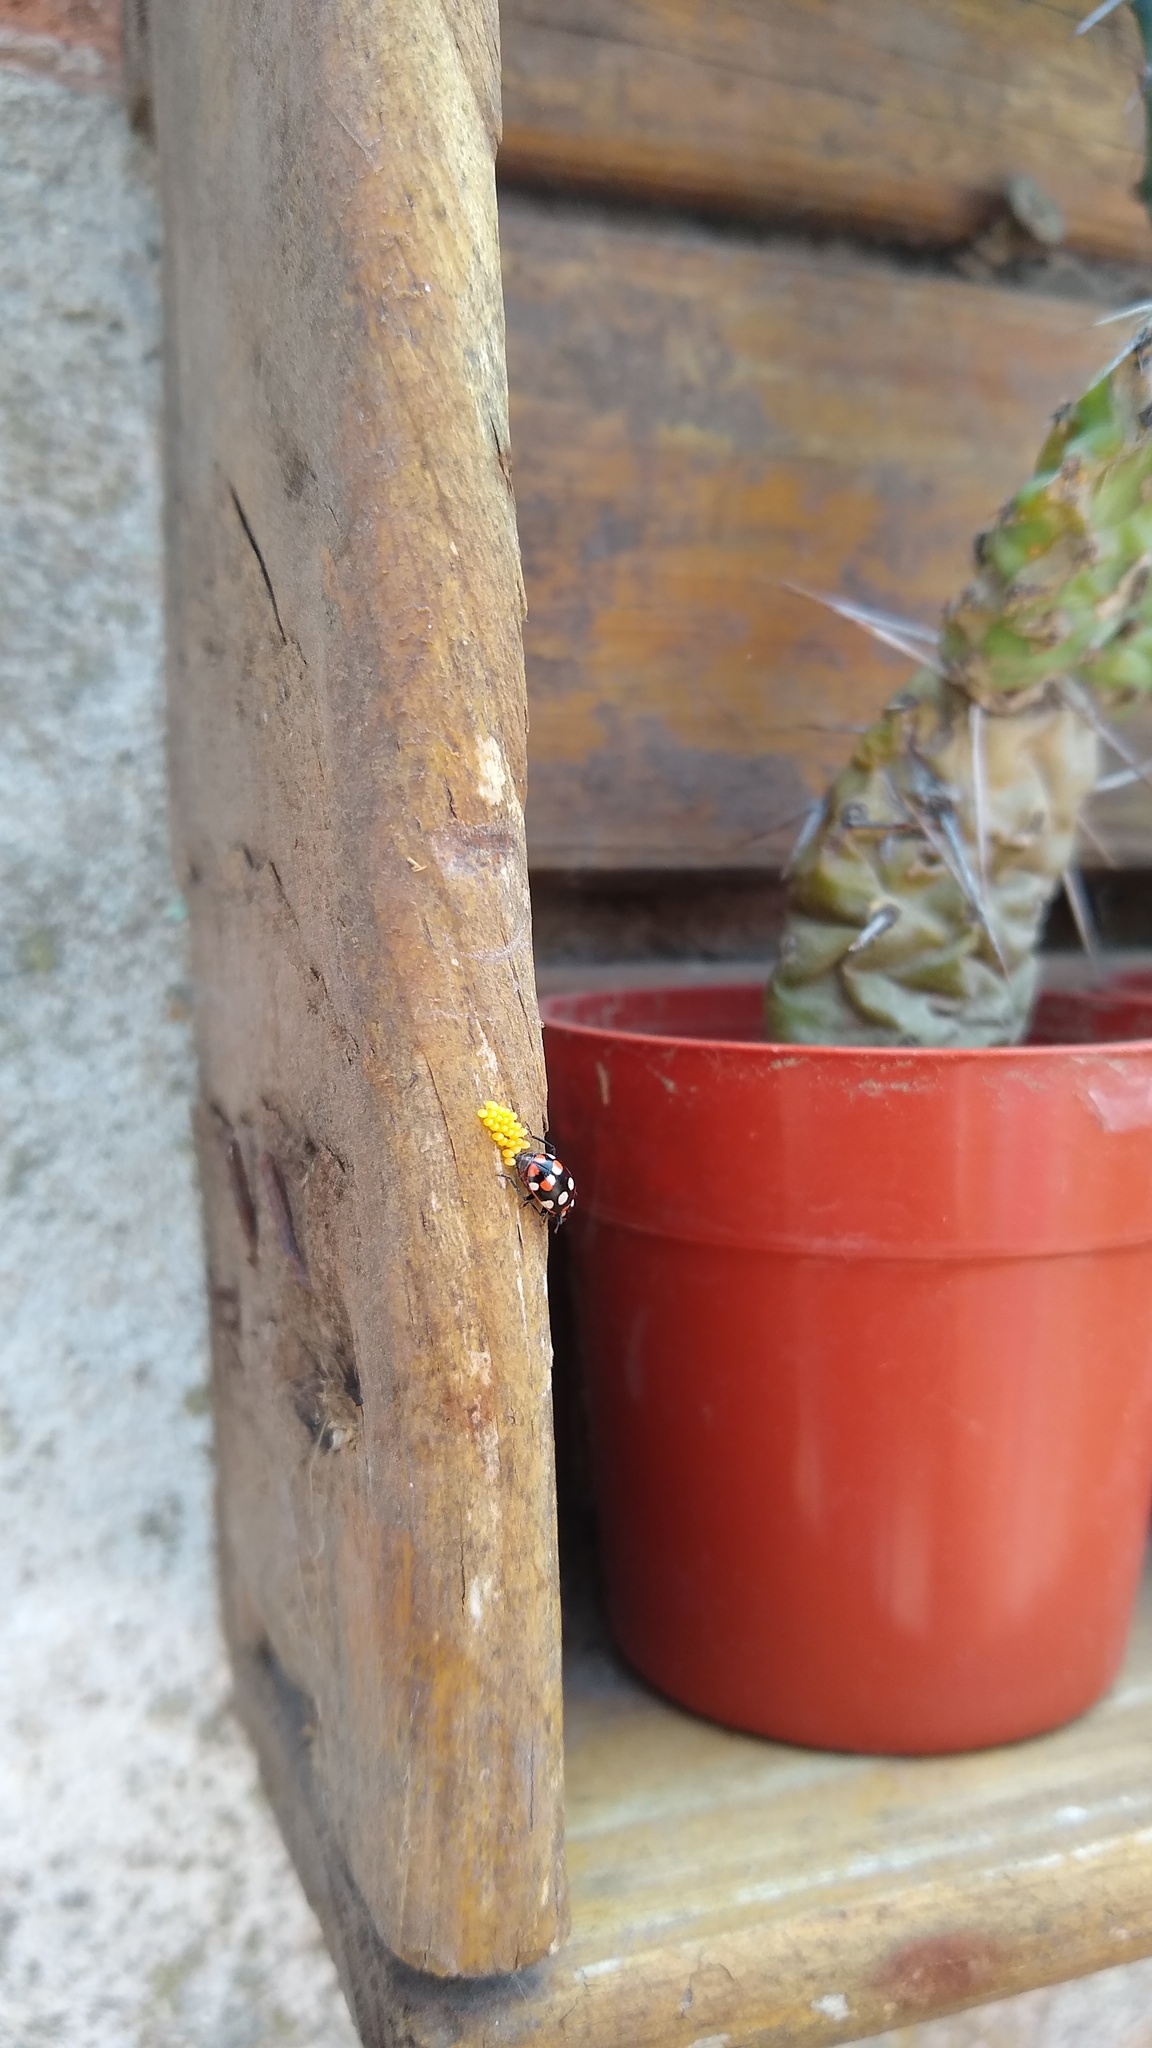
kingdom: Animalia
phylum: Arthropoda
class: Insecta
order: Coleoptera
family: Coccinellidae
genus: Eriopis
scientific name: Eriopis connexa
